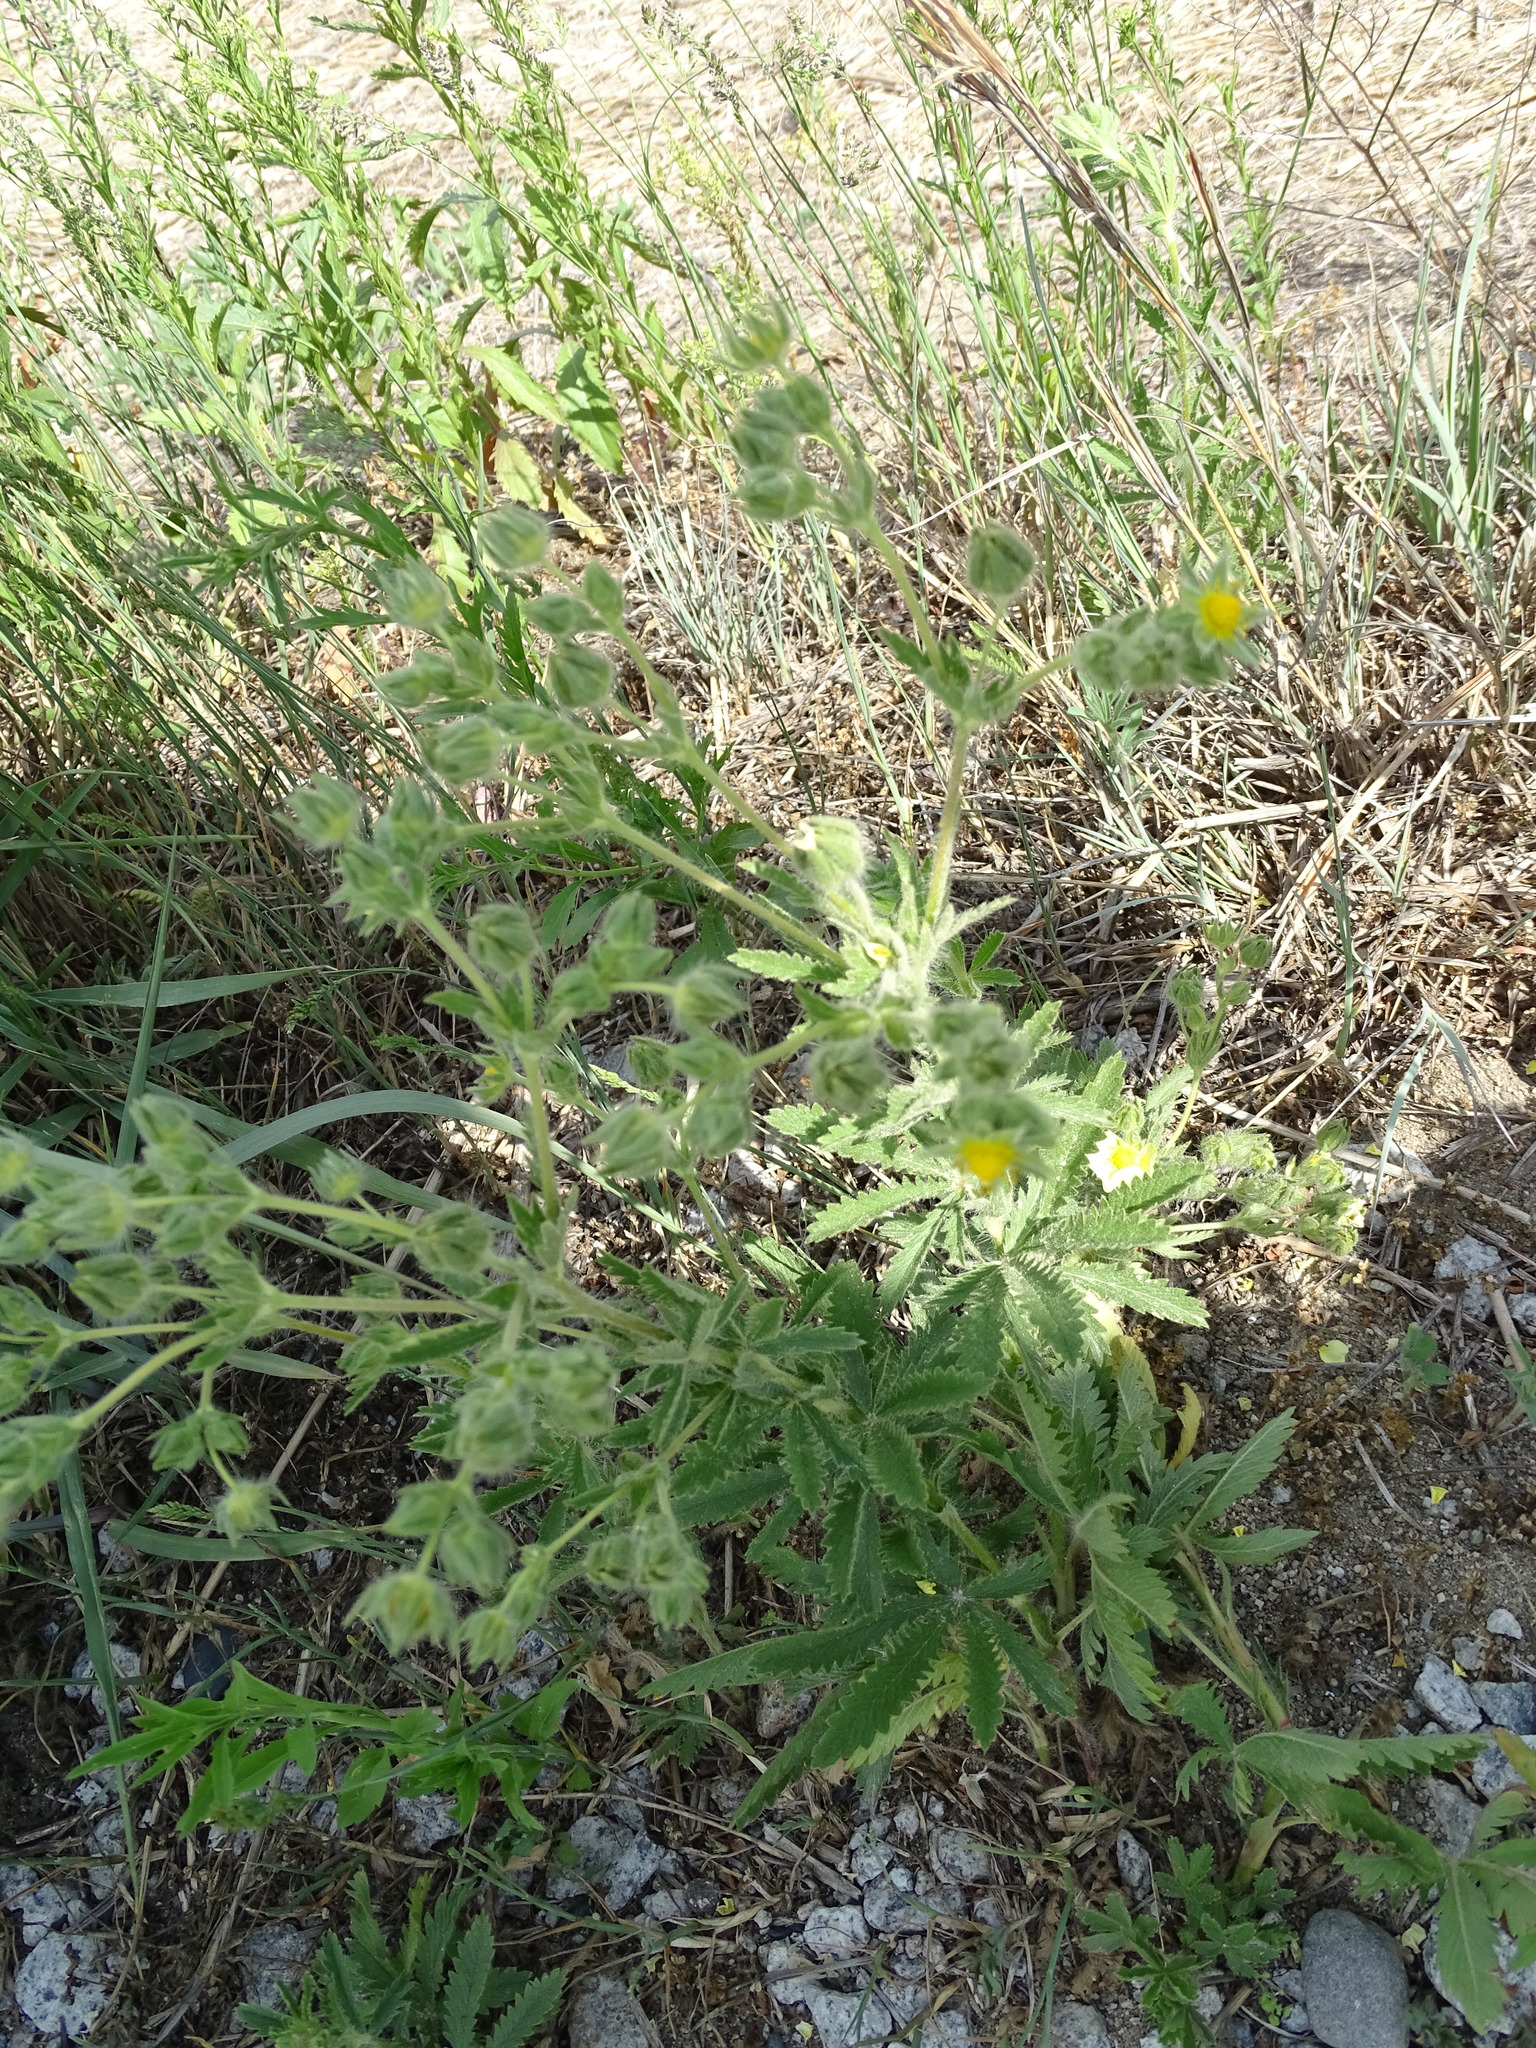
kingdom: Plantae
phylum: Tracheophyta
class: Magnoliopsida
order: Rosales
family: Rosaceae
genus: Potentilla
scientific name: Potentilla recta
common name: Sulphur cinquefoil
